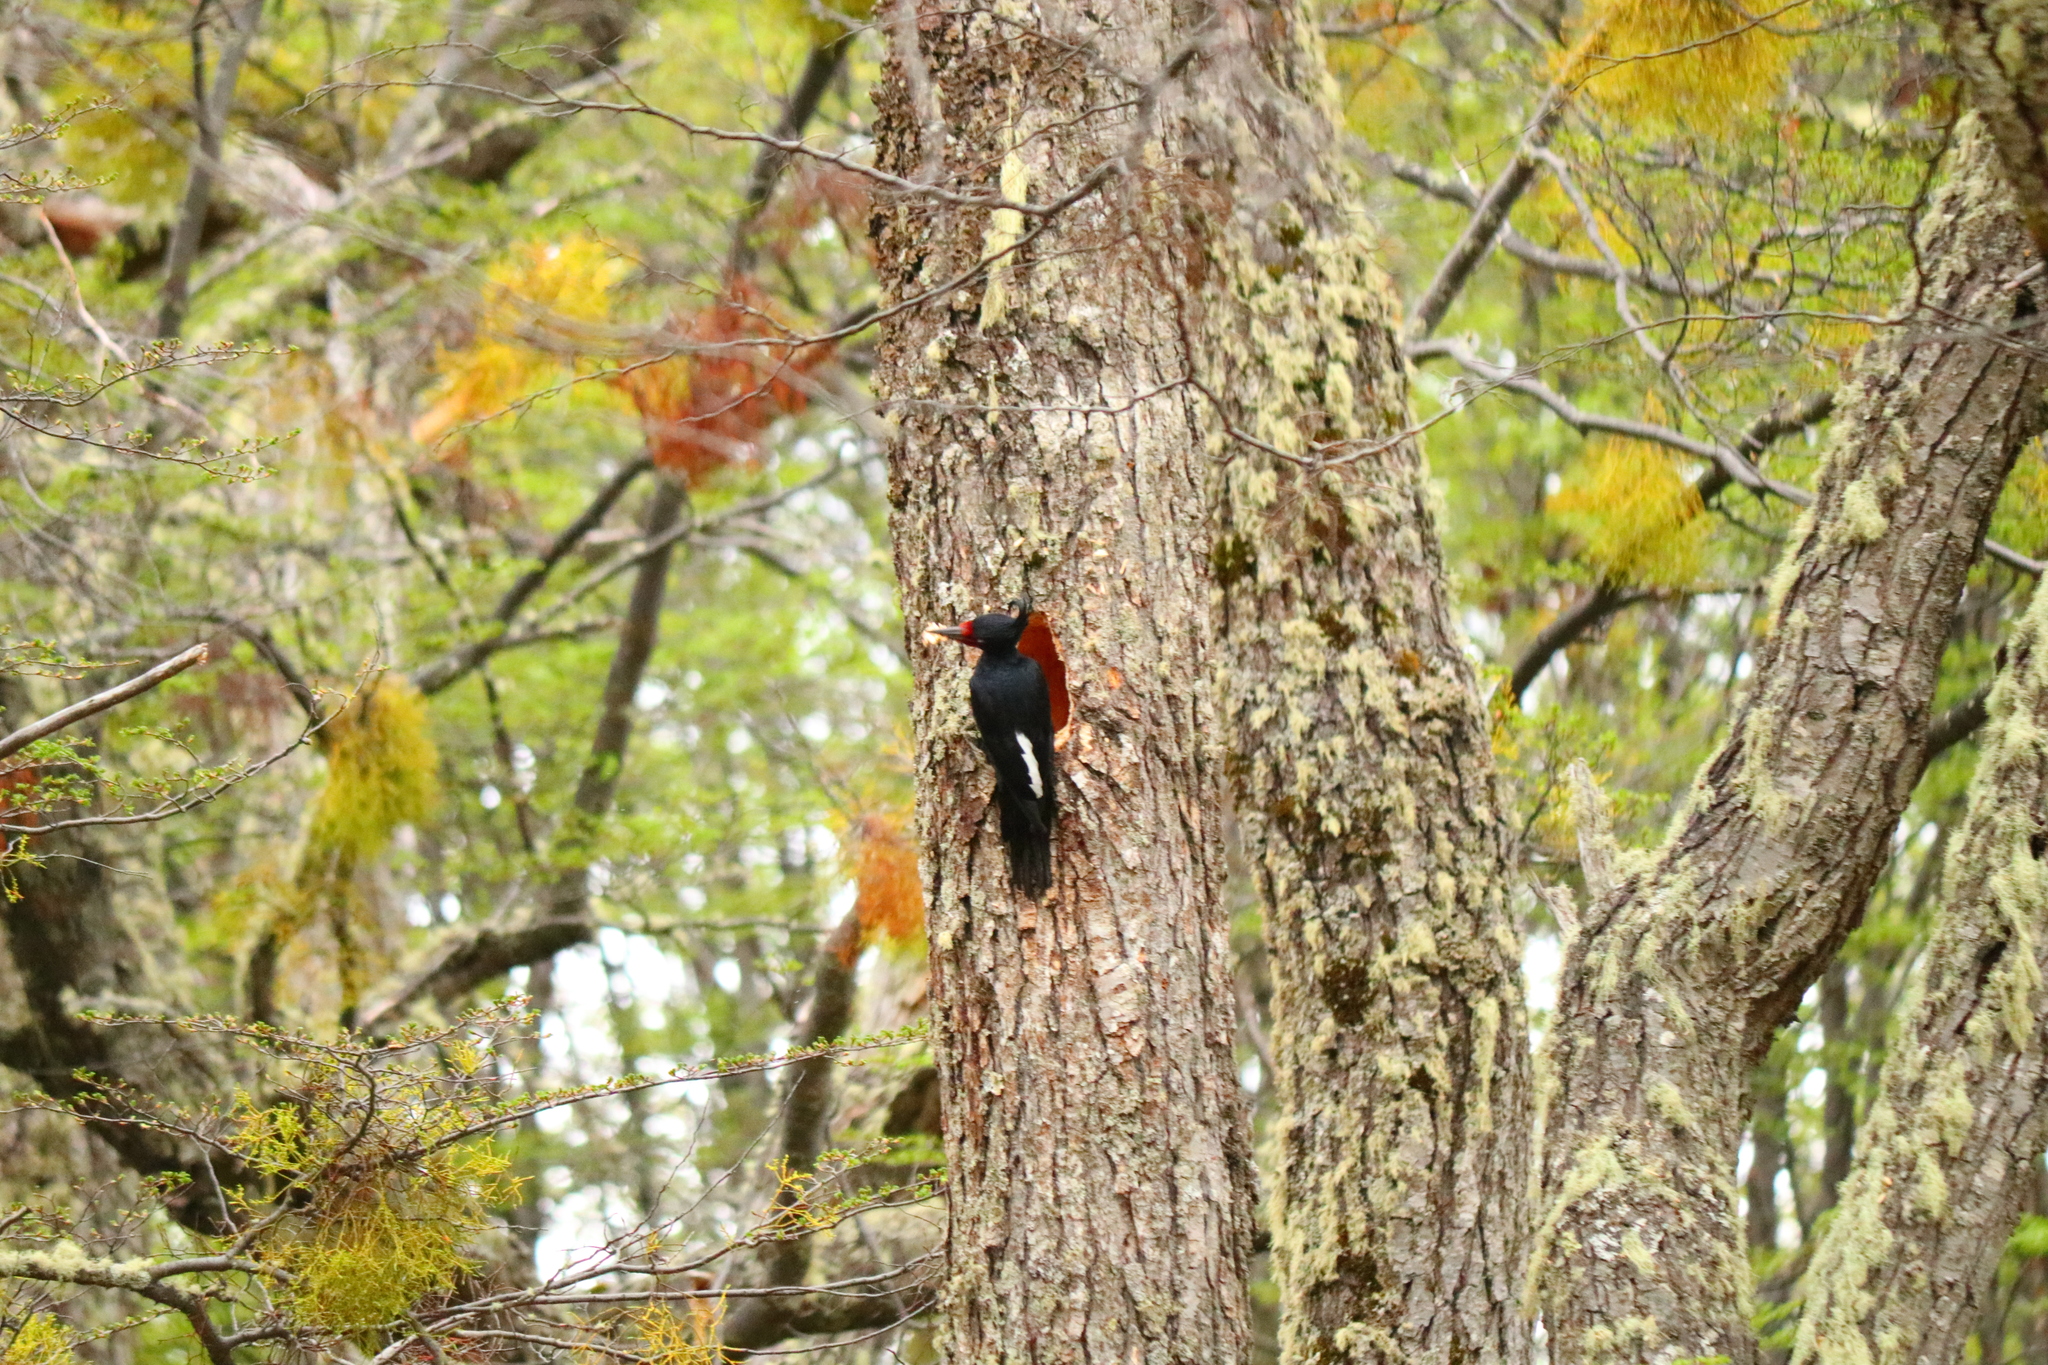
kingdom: Animalia
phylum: Chordata
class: Aves
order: Piciformes
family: Picidae
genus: Campephilus
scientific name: Campephilus magellanicus
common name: Magellanic woodpecker
